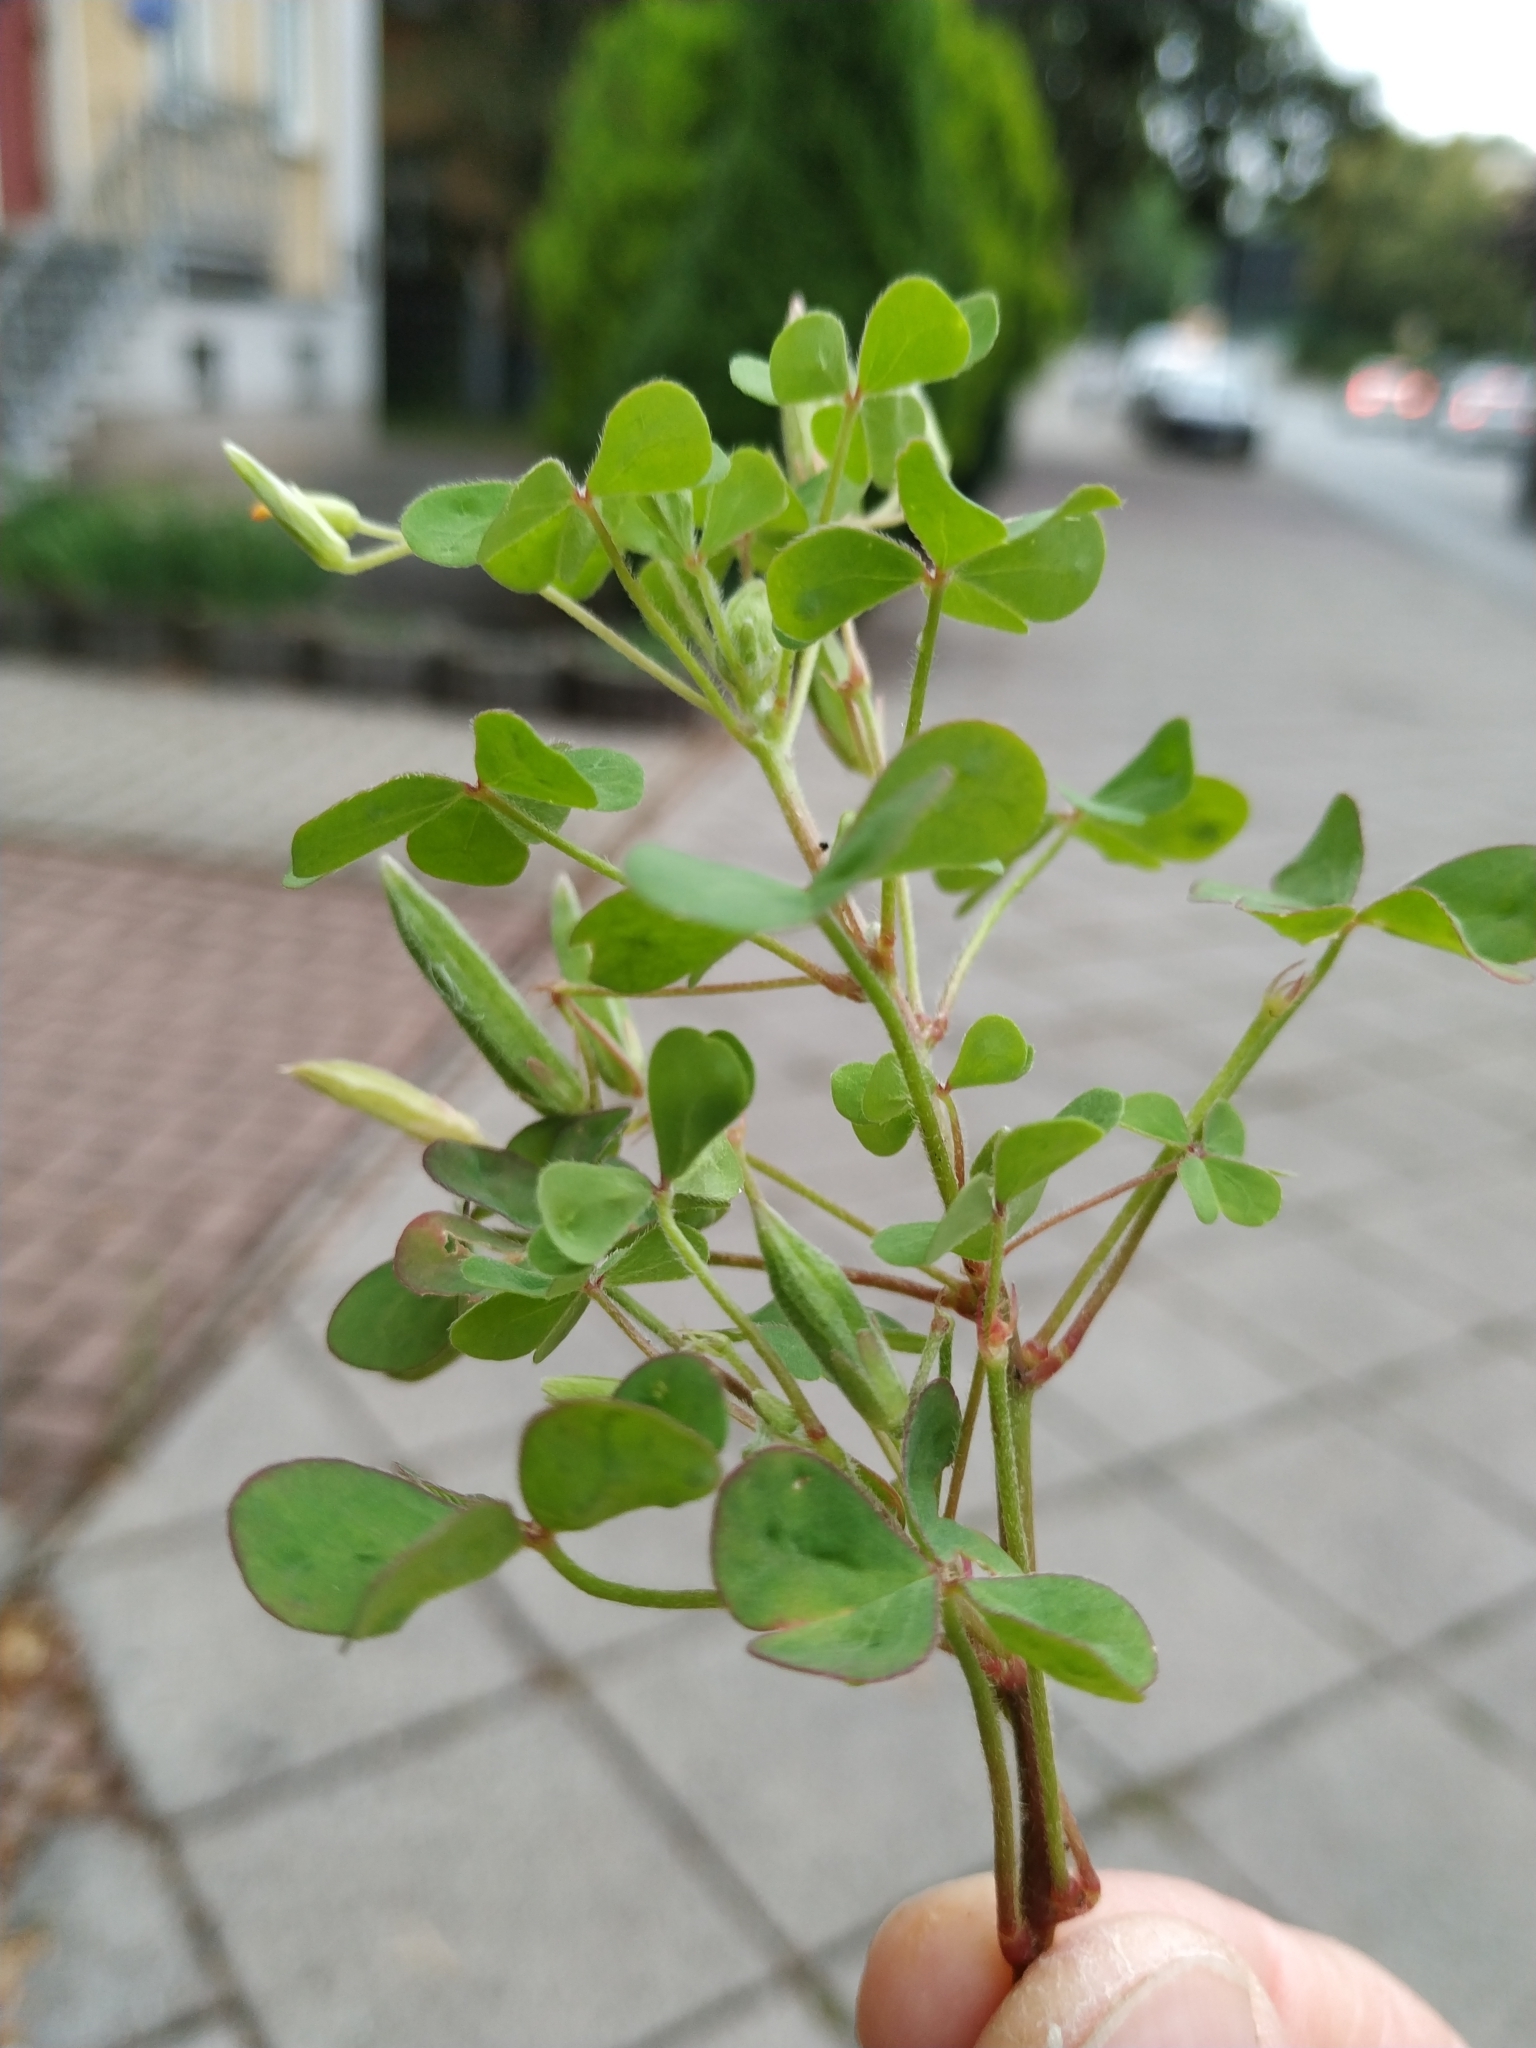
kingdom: Plantae
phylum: Tracheophyta
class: Magnoliopsida
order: Oxalidales
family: Oxalidaceae
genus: Oxalis
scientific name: Oxalis dillenii
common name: Sussex yellow-sorrel
